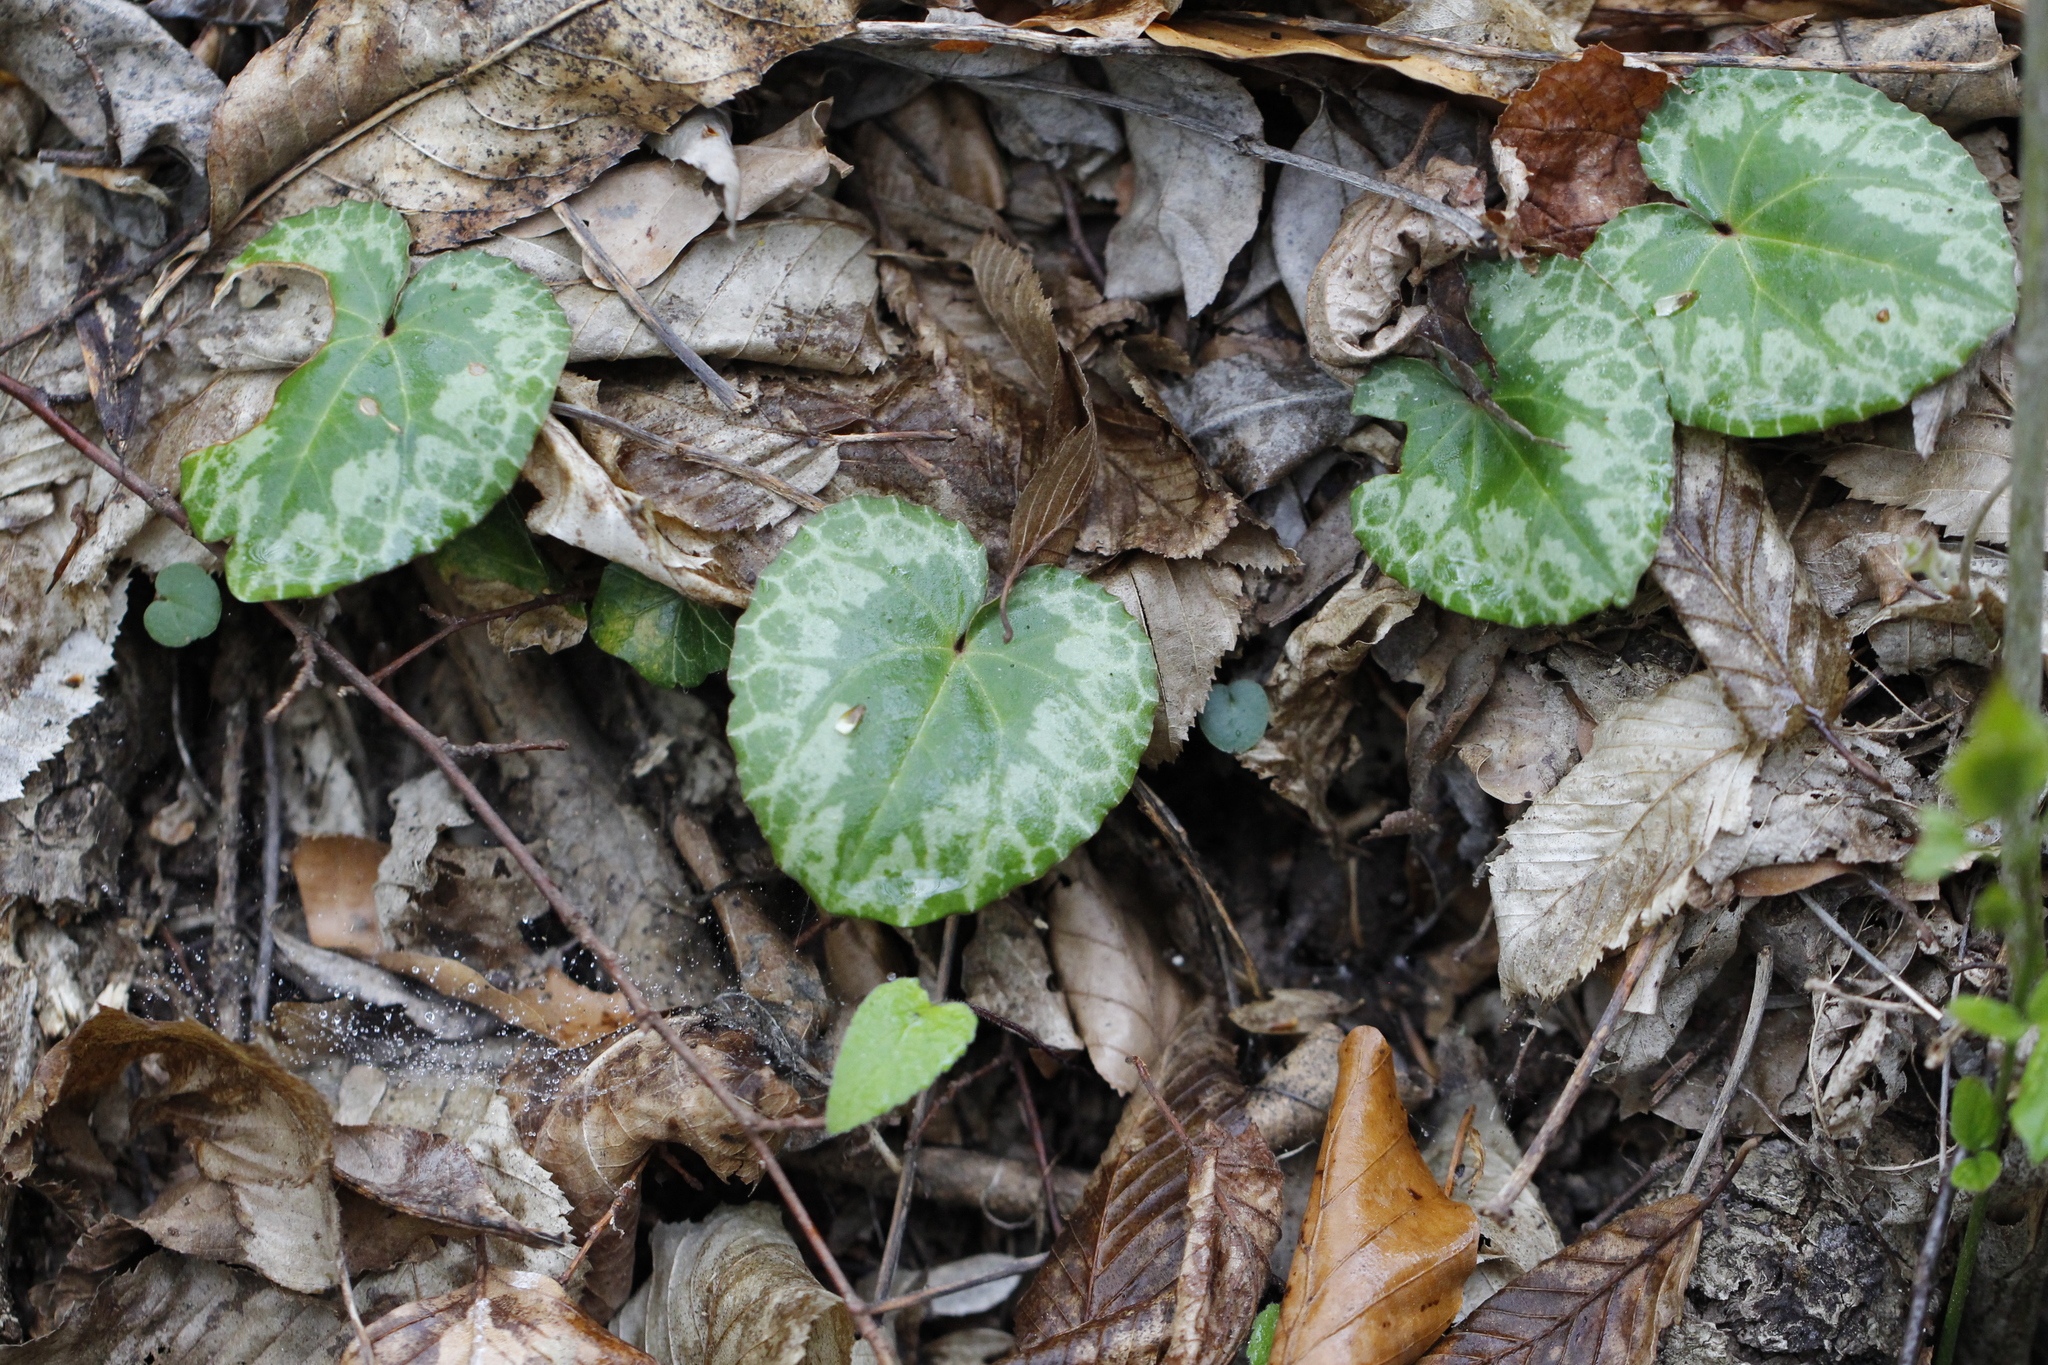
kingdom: Plantae
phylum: Tracheophyta
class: Magnoliopsida
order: Ericales
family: Primulaceae
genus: Cyclamen
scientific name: Cyclamen purpurascens
